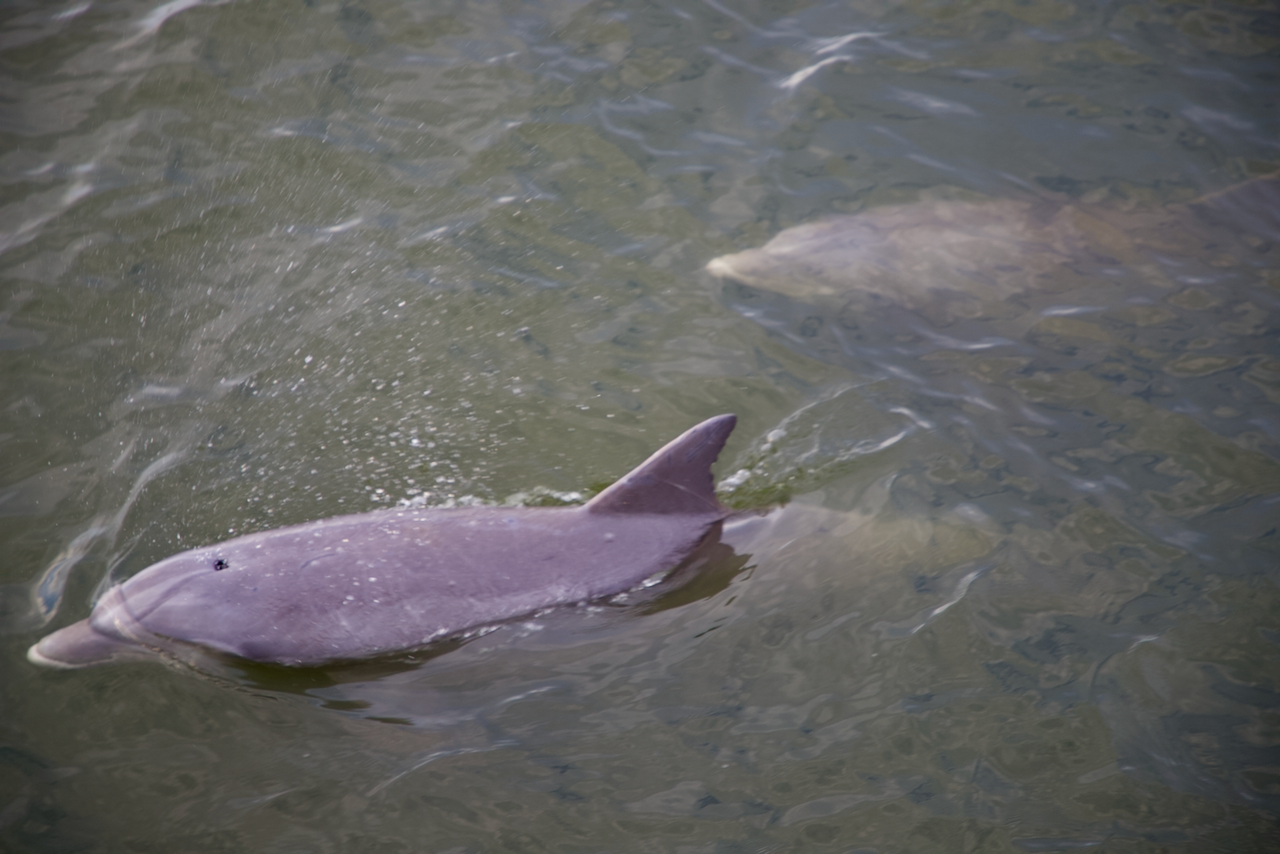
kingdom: Animalia
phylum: Chordata
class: Mammalia
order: Cetacea
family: Delphinidae
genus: Tursiops
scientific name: Tursiops truncatus
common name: Bottlenose dolphin
